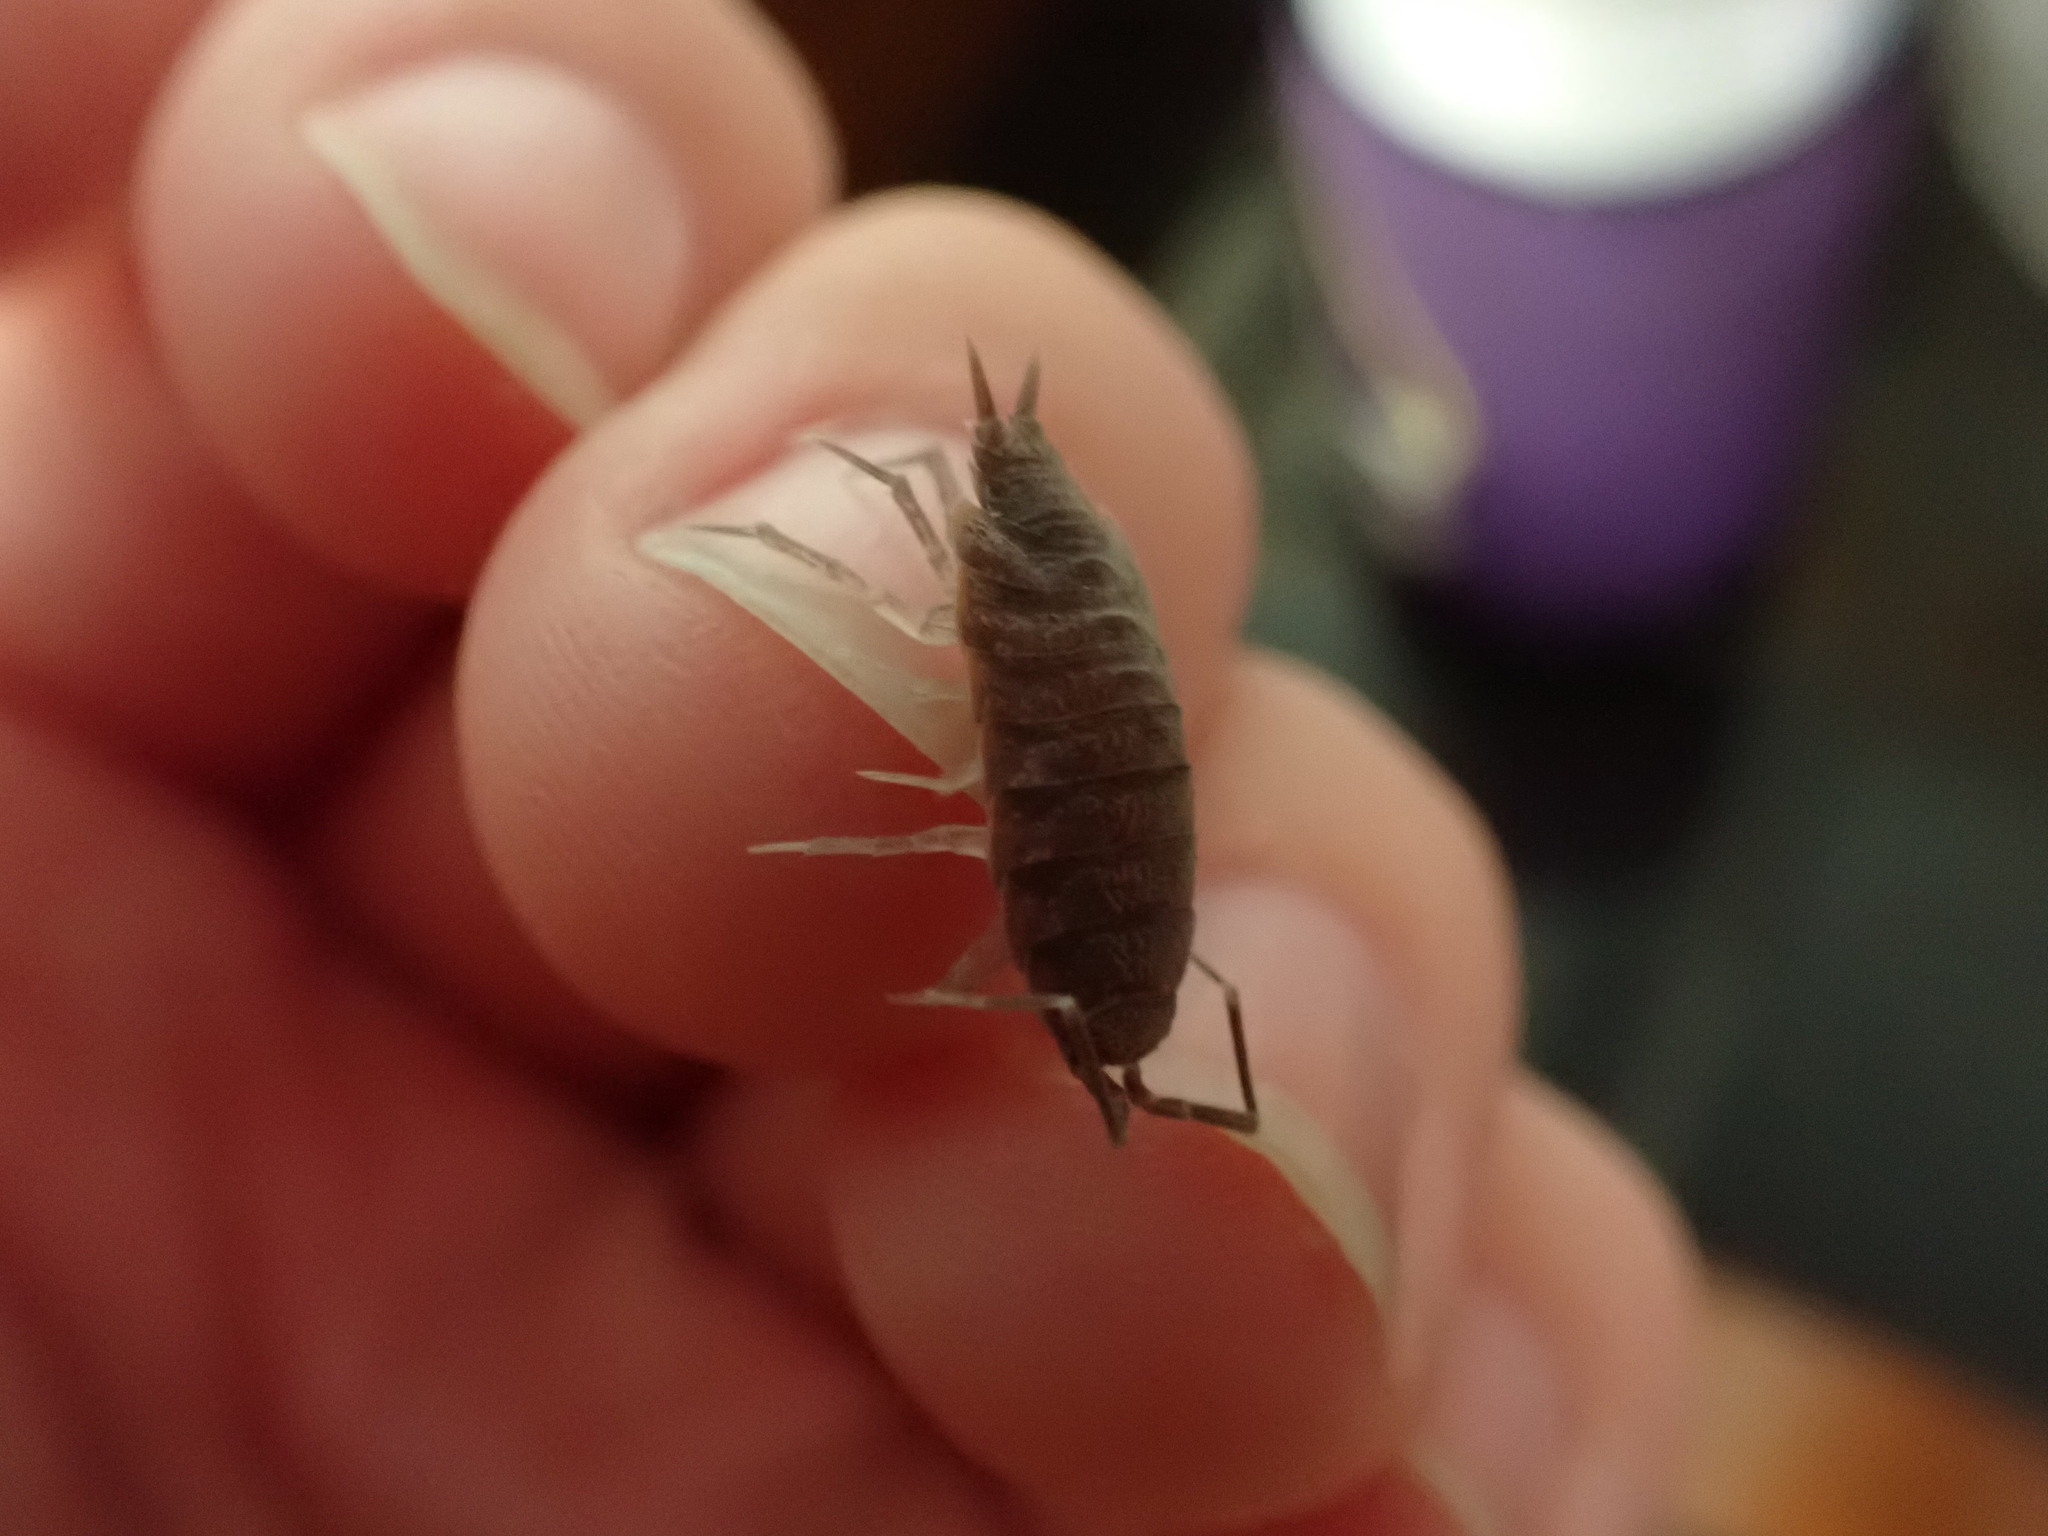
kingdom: Animalia
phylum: Arthropoda
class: Malacostraca
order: Isopoda
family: Porcellionidae
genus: Porcellionides
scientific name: Porcellionides
